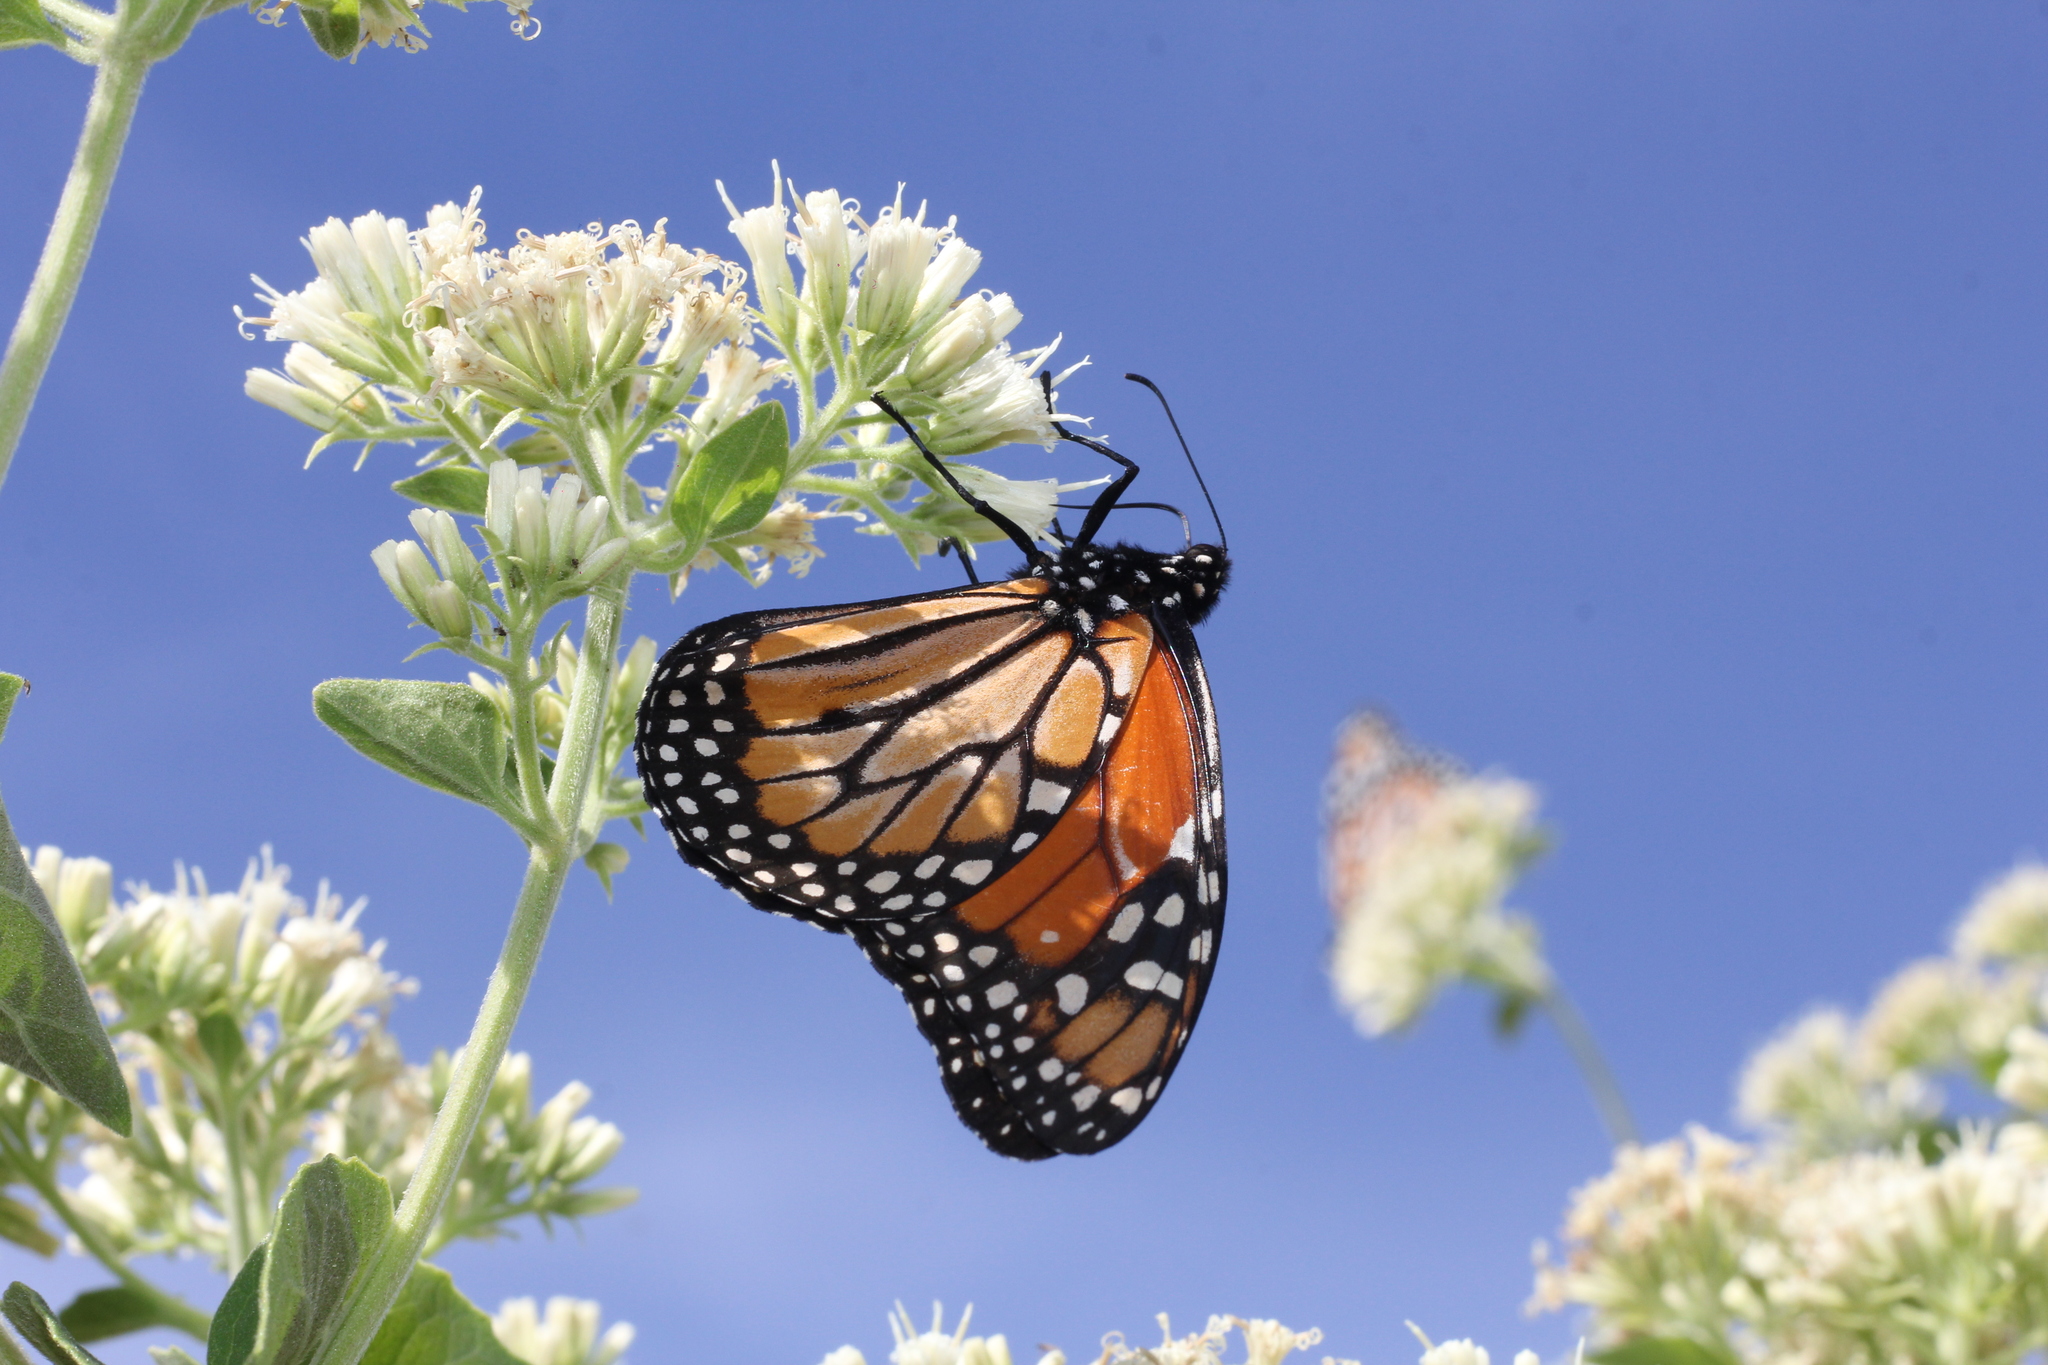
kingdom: Animalia
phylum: Arthropoda
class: Insecta
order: Lepidoptera
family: Nymphalidae
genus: Danaus
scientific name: Danaus erippus
